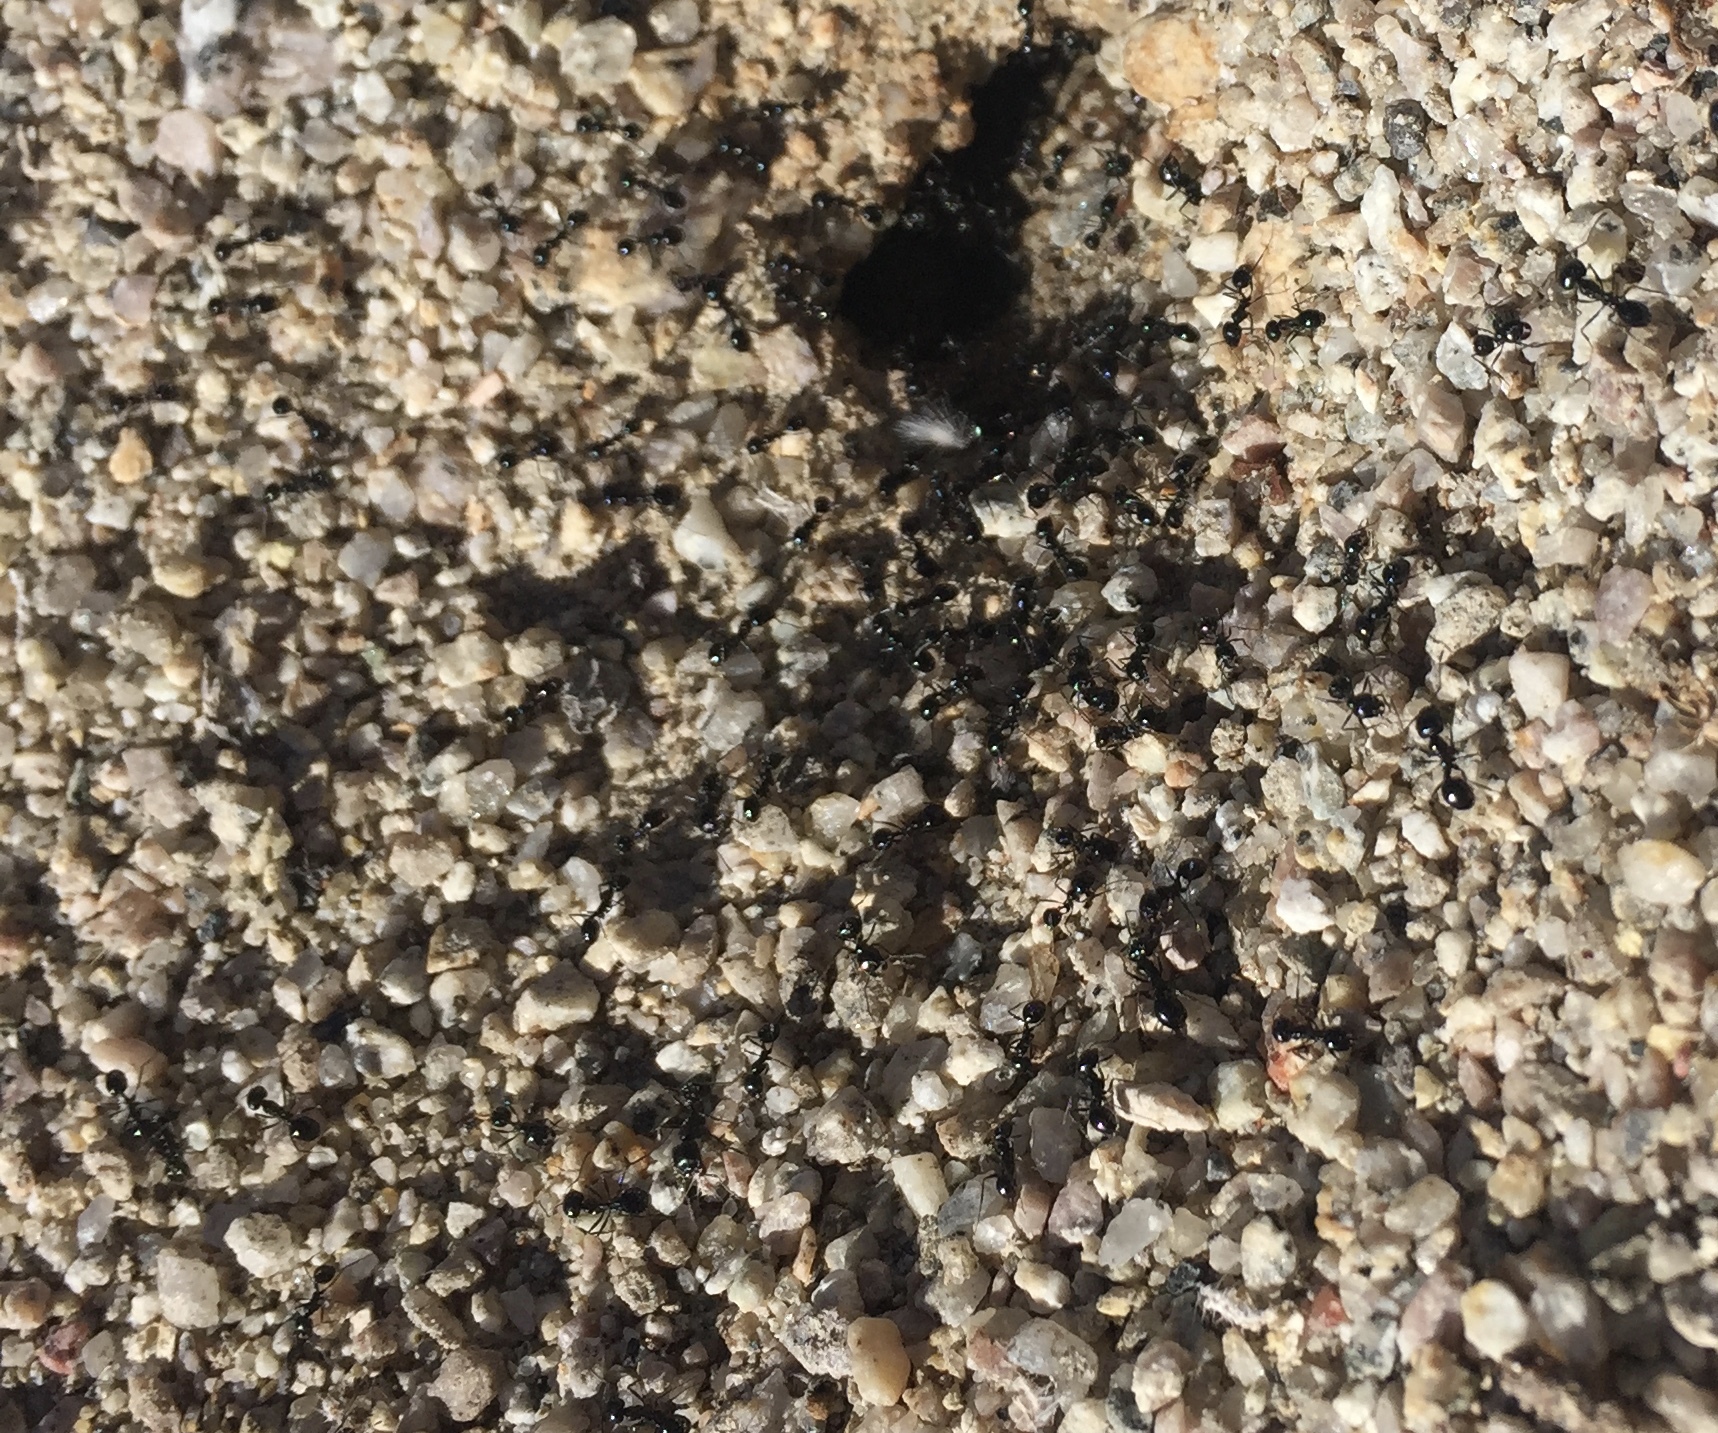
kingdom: Animalia
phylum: Arthropoda
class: Insecta
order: Hymenoptera
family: Formicidae
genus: Messor
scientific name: Messor pergandei
